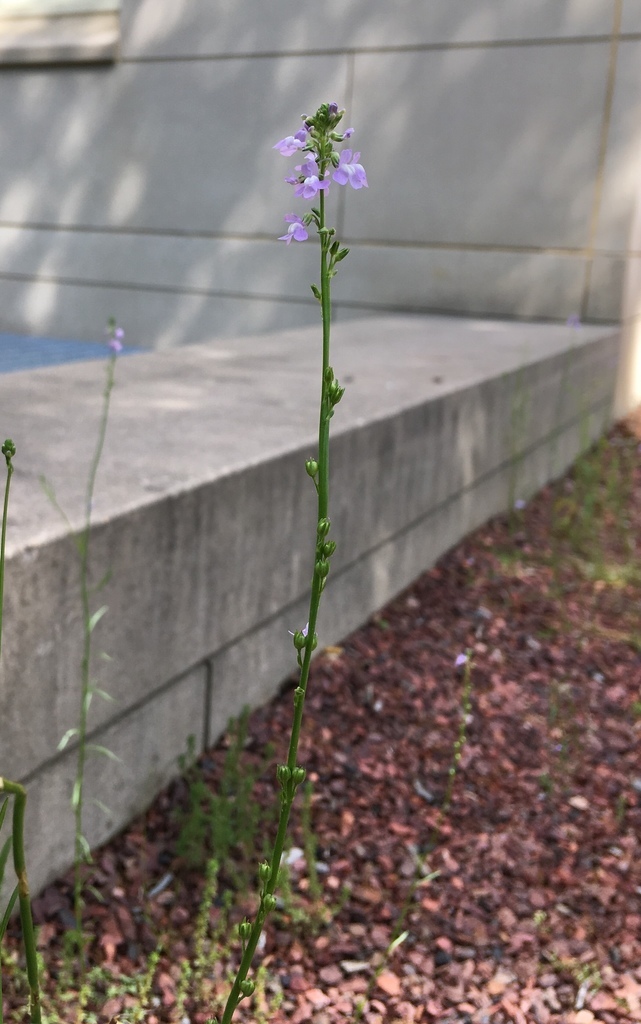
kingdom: Plantae
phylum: Tracheophyta
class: Magnoliopsida
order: Lamiales
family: Plantaginaceae
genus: Nuttallanthus
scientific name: Nuttallanthus canadensis
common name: Blue toadflax
